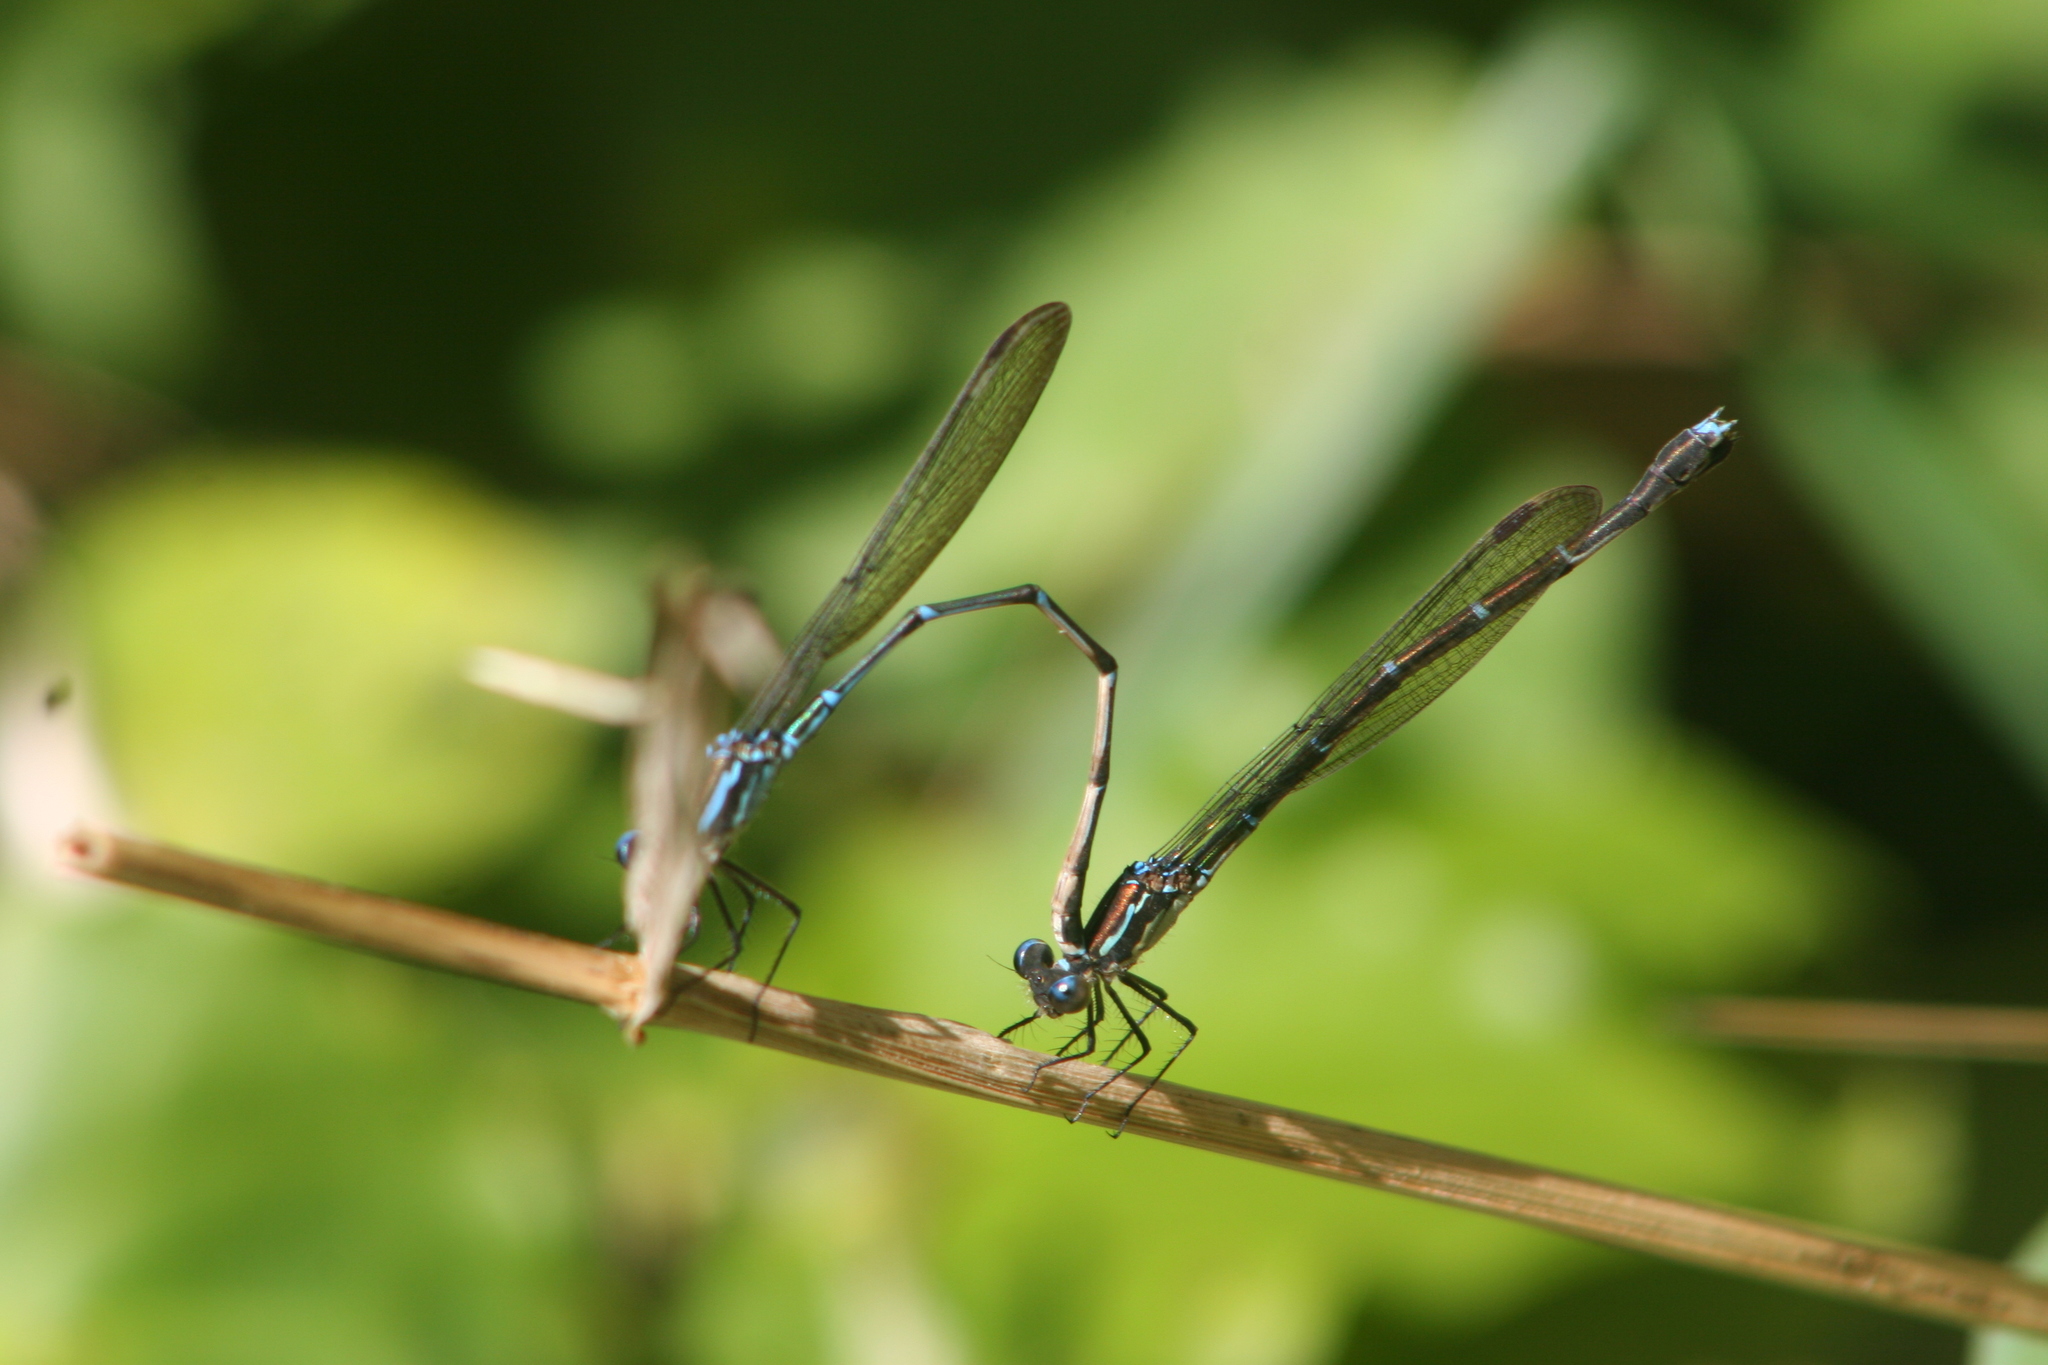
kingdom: Animalia
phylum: Arthropoda
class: Insecta
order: Odonata
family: Lestidae
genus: Austrolestes
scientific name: Austrolestes colensonis
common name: Blue damselfly
